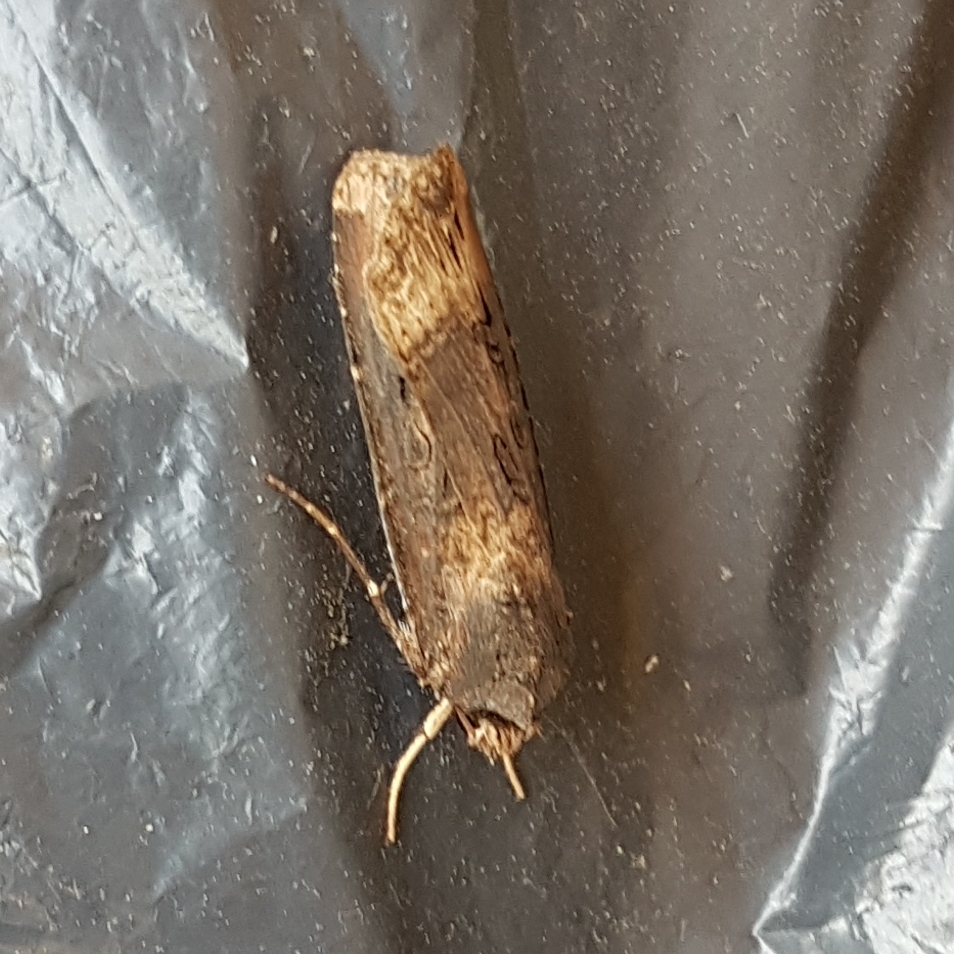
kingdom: Animalia
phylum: Arthropoda
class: Insecta
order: Lepidoptera
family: Noctuidae
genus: Agrotis
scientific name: Agrotis ipsilon
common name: Dark sword-grass
